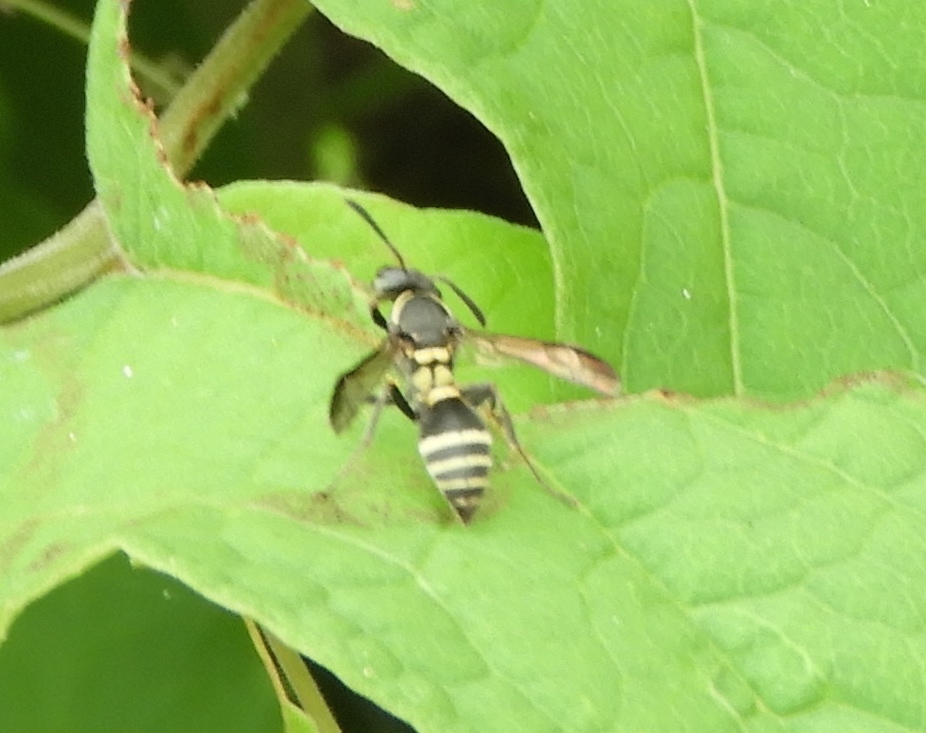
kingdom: Animalia
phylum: Arthropoda
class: Insecta
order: Hymenoptera
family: Eumenidae
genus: Polybia
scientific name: Polybia occidentalis
